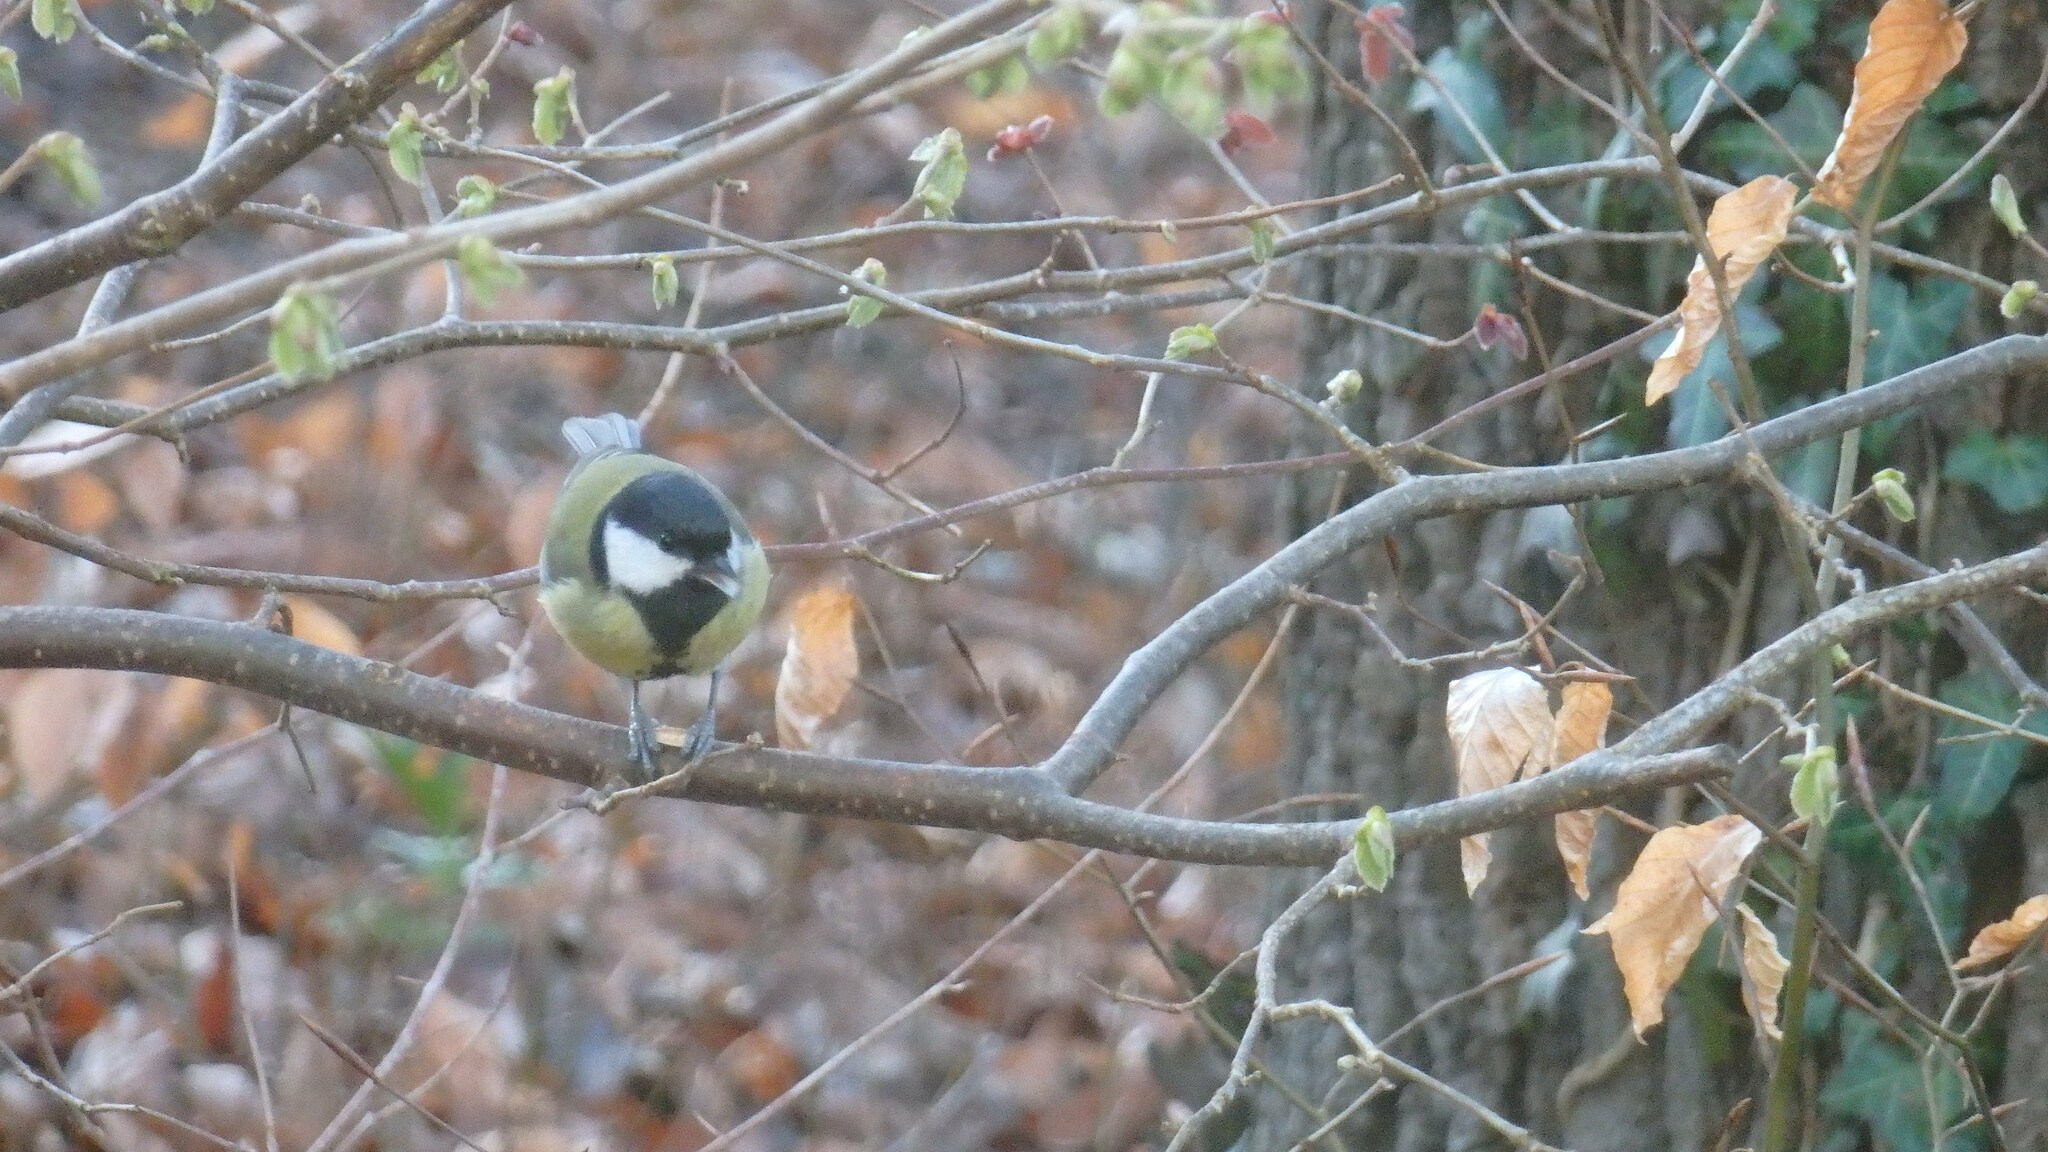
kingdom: Animalia
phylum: Chordata
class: Aves
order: Passeriformes
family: Paridae
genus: Parus
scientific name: Parus major
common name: Great tit
